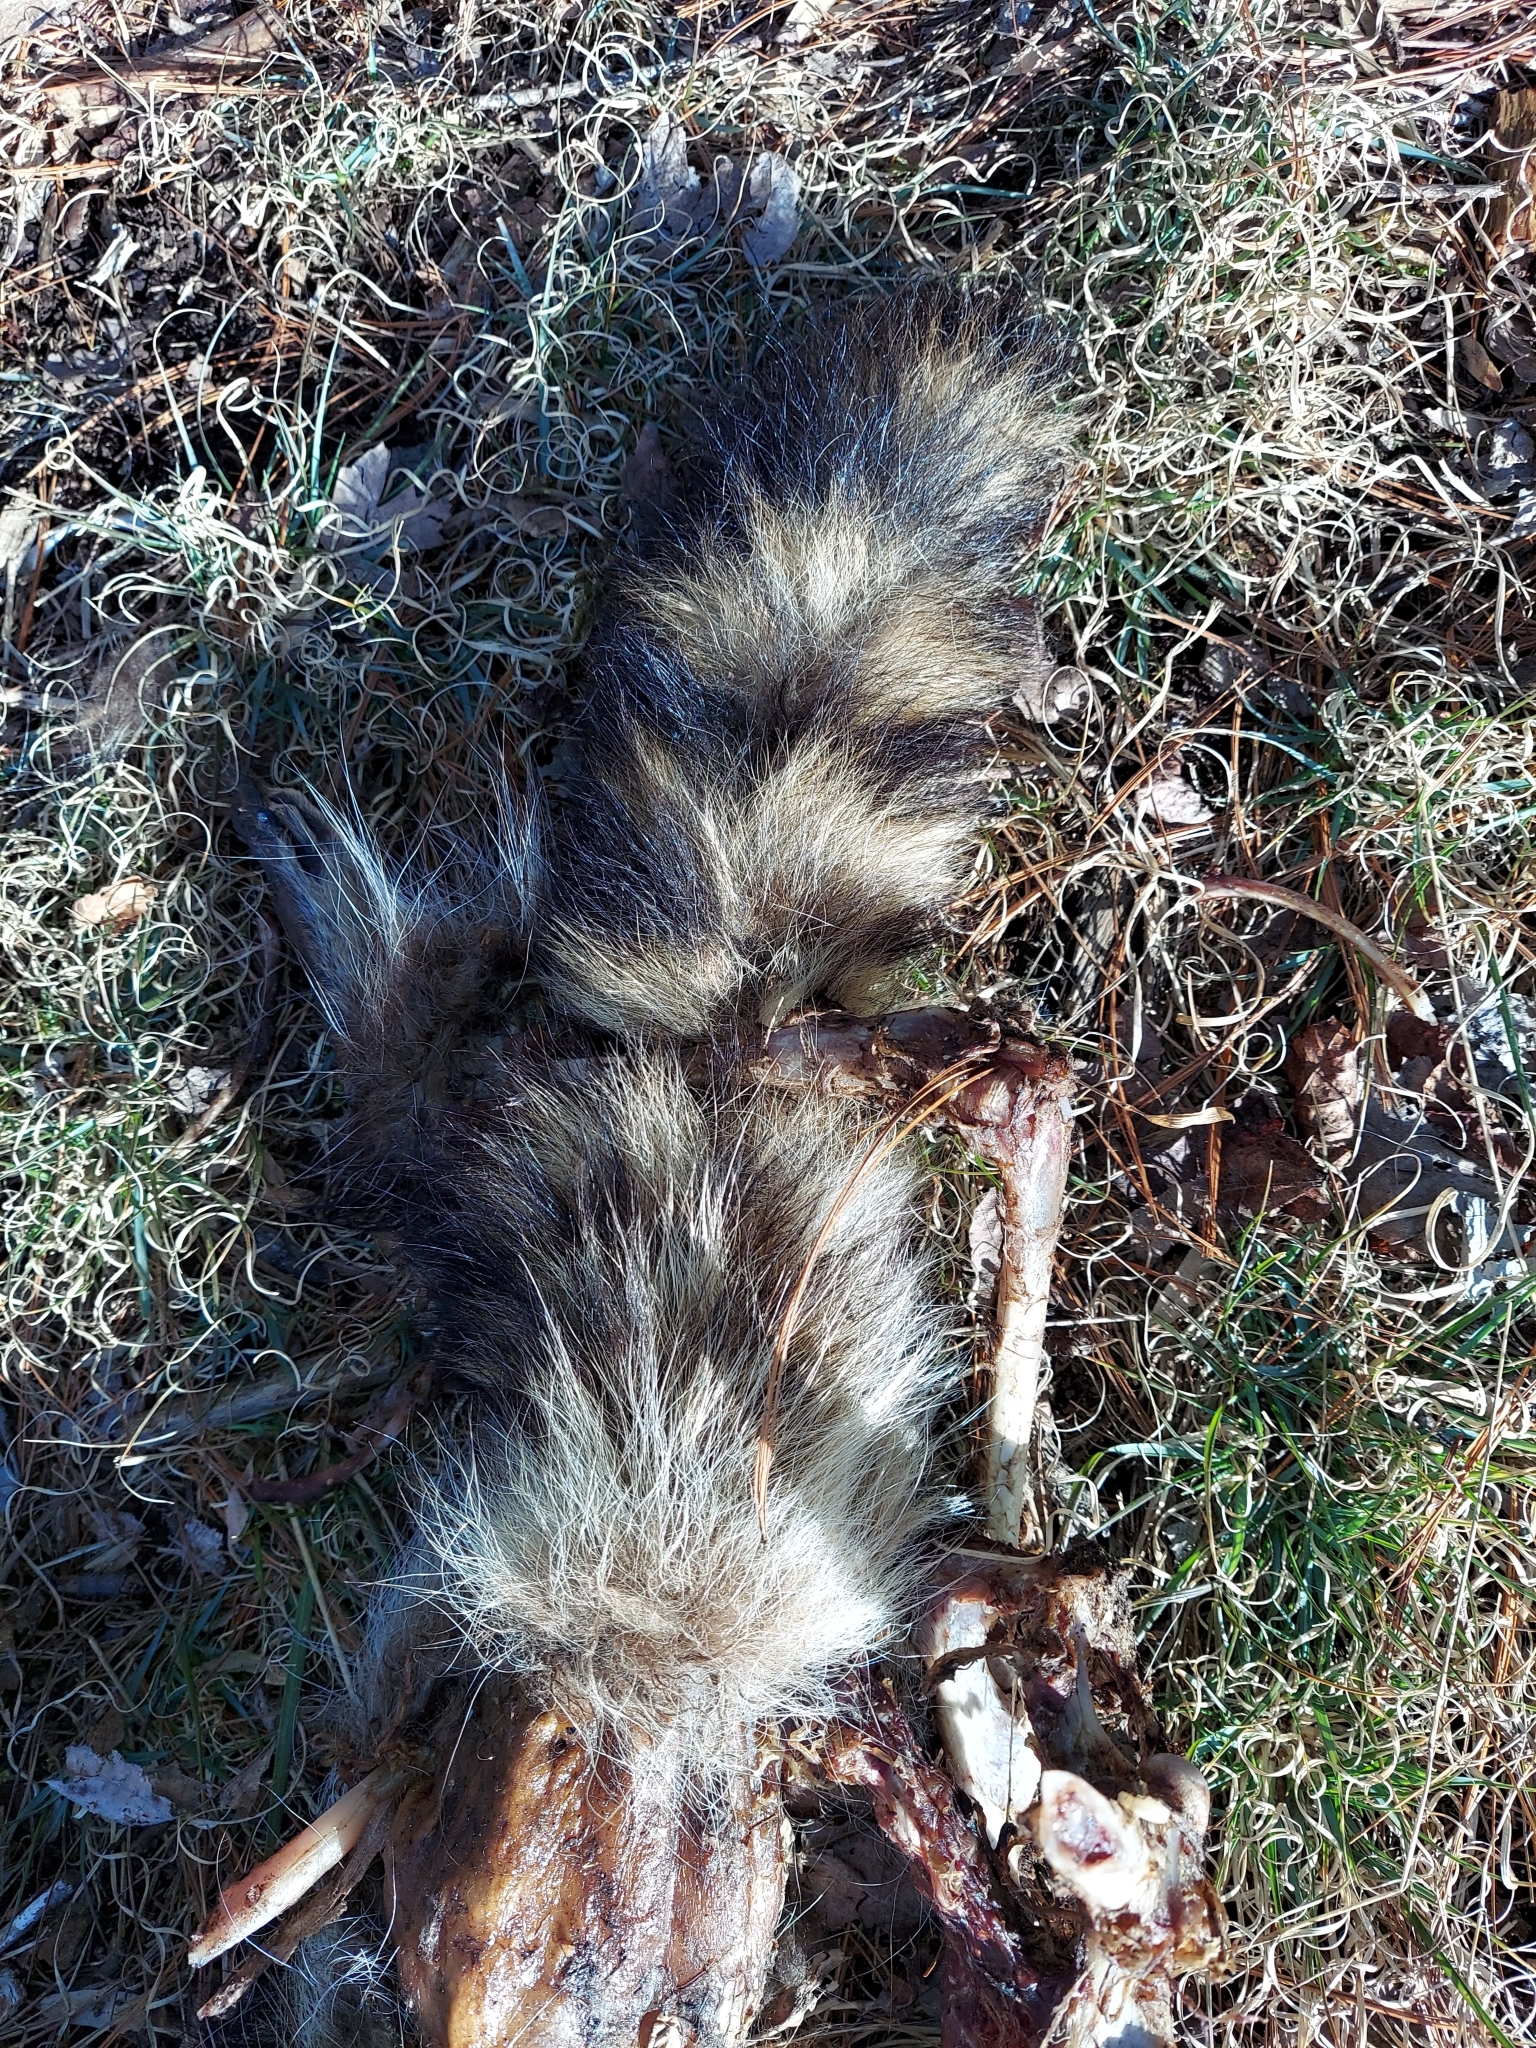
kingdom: Animalia
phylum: Chordata
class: Mammalia
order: Carnivora
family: Procyonidae
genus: Procyon
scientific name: Procyon lotor
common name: Raccoon
